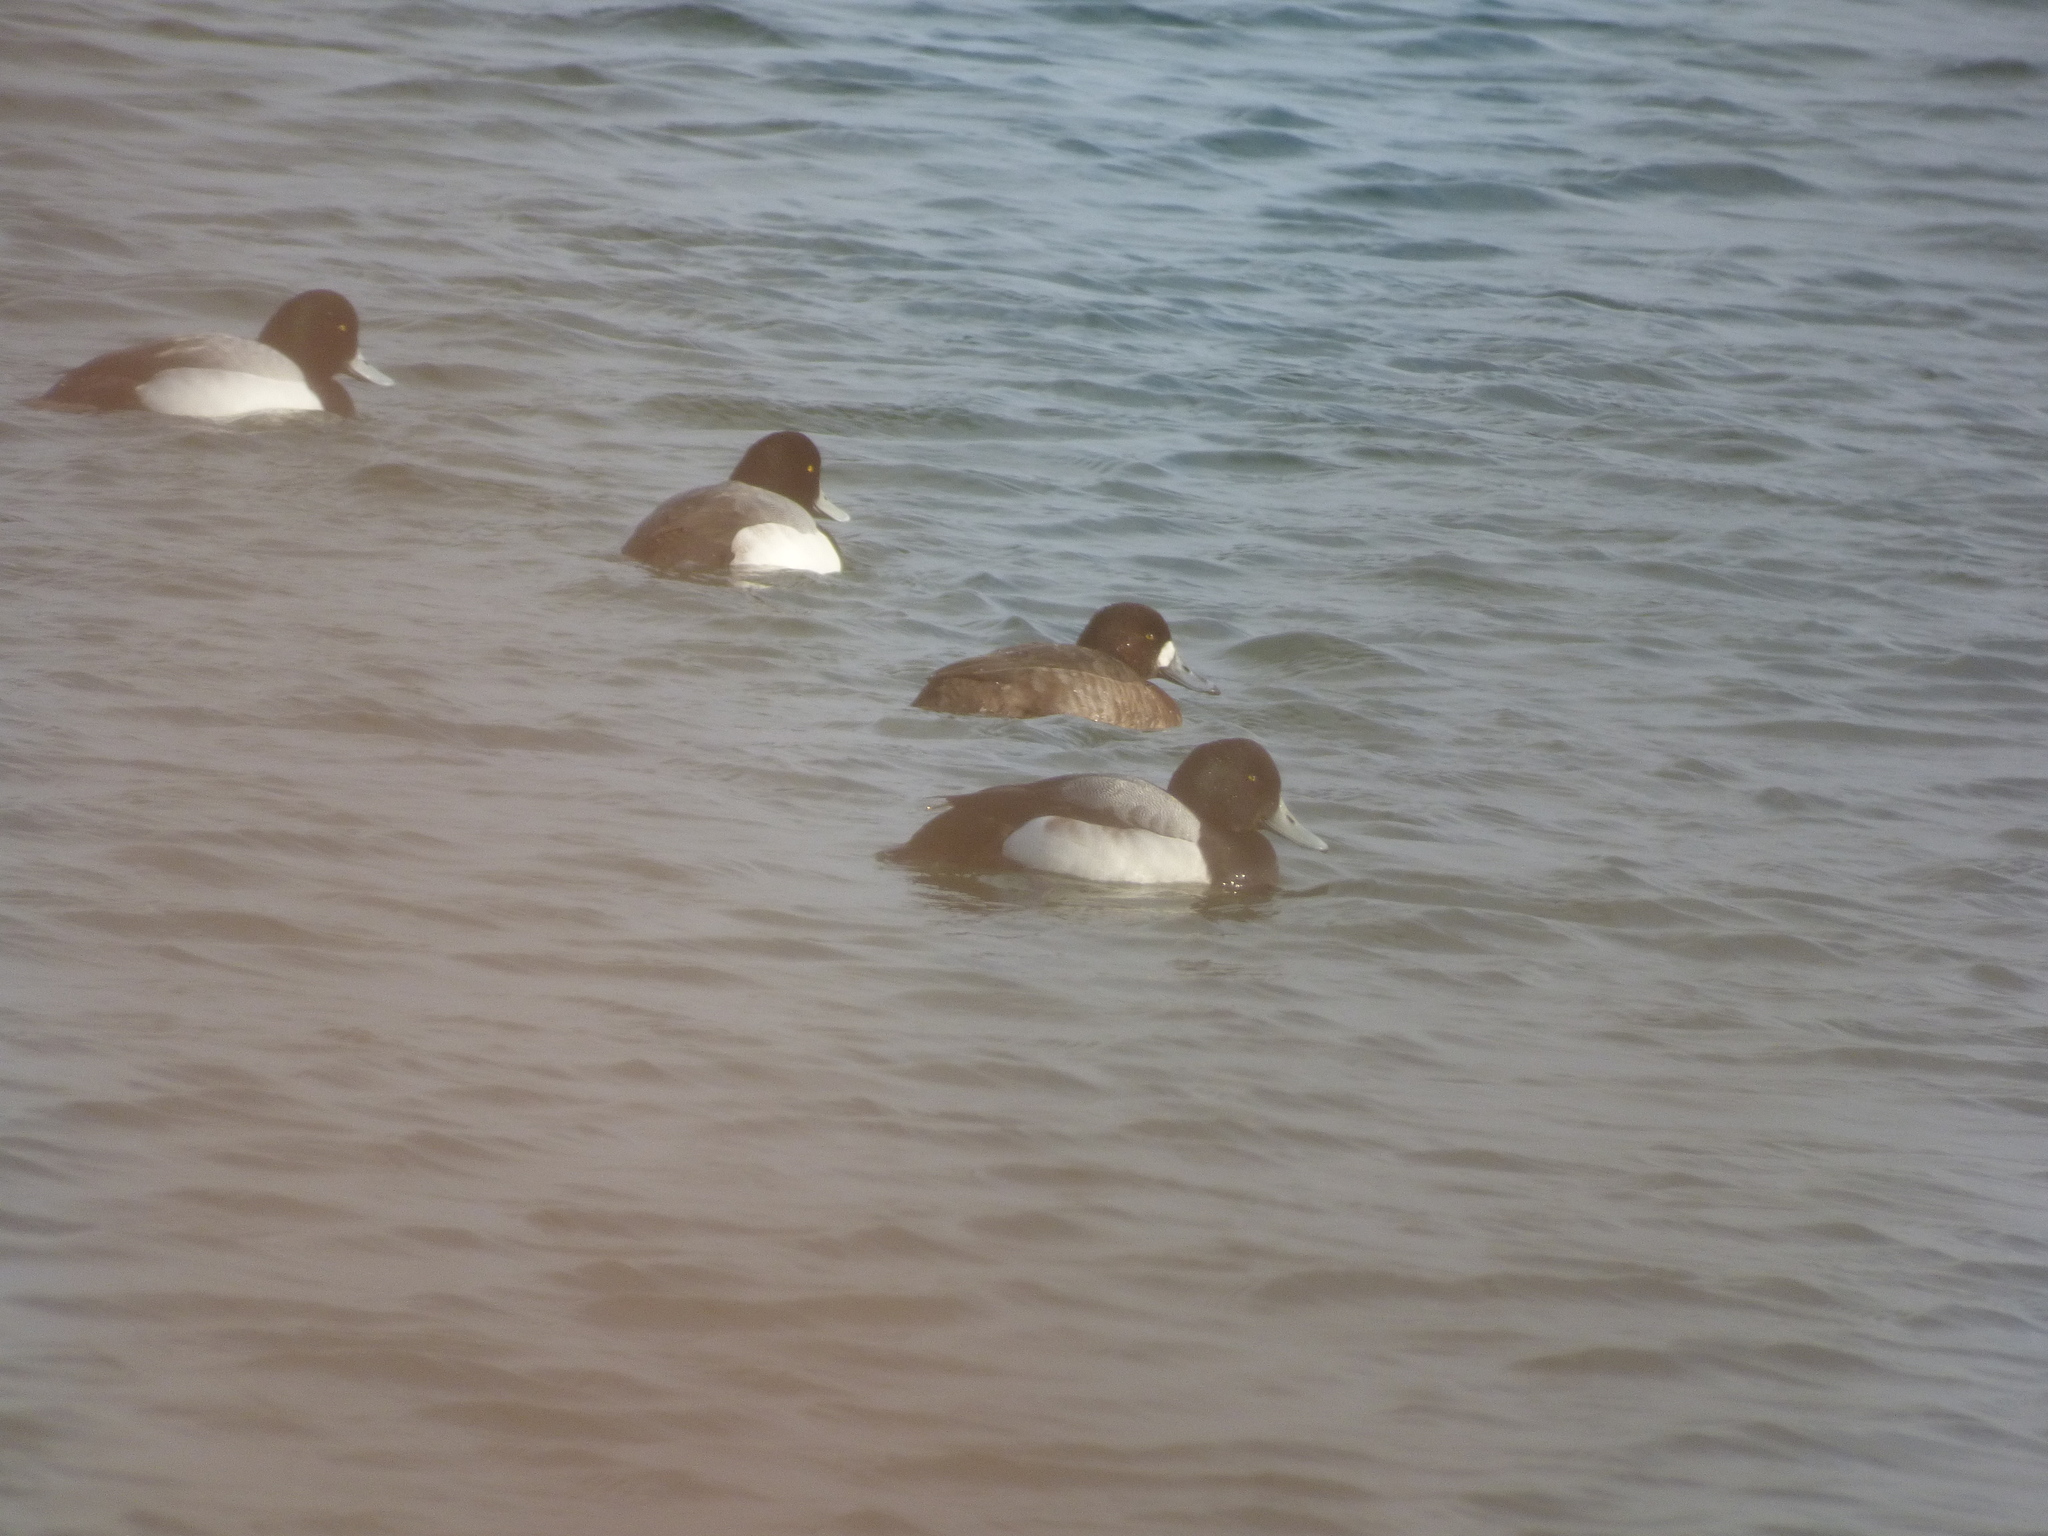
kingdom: Animalia
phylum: Chordata
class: Aves
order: Anseriformes
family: Anatidae
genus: Aythya
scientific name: Aythya marila
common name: Greater scaup
